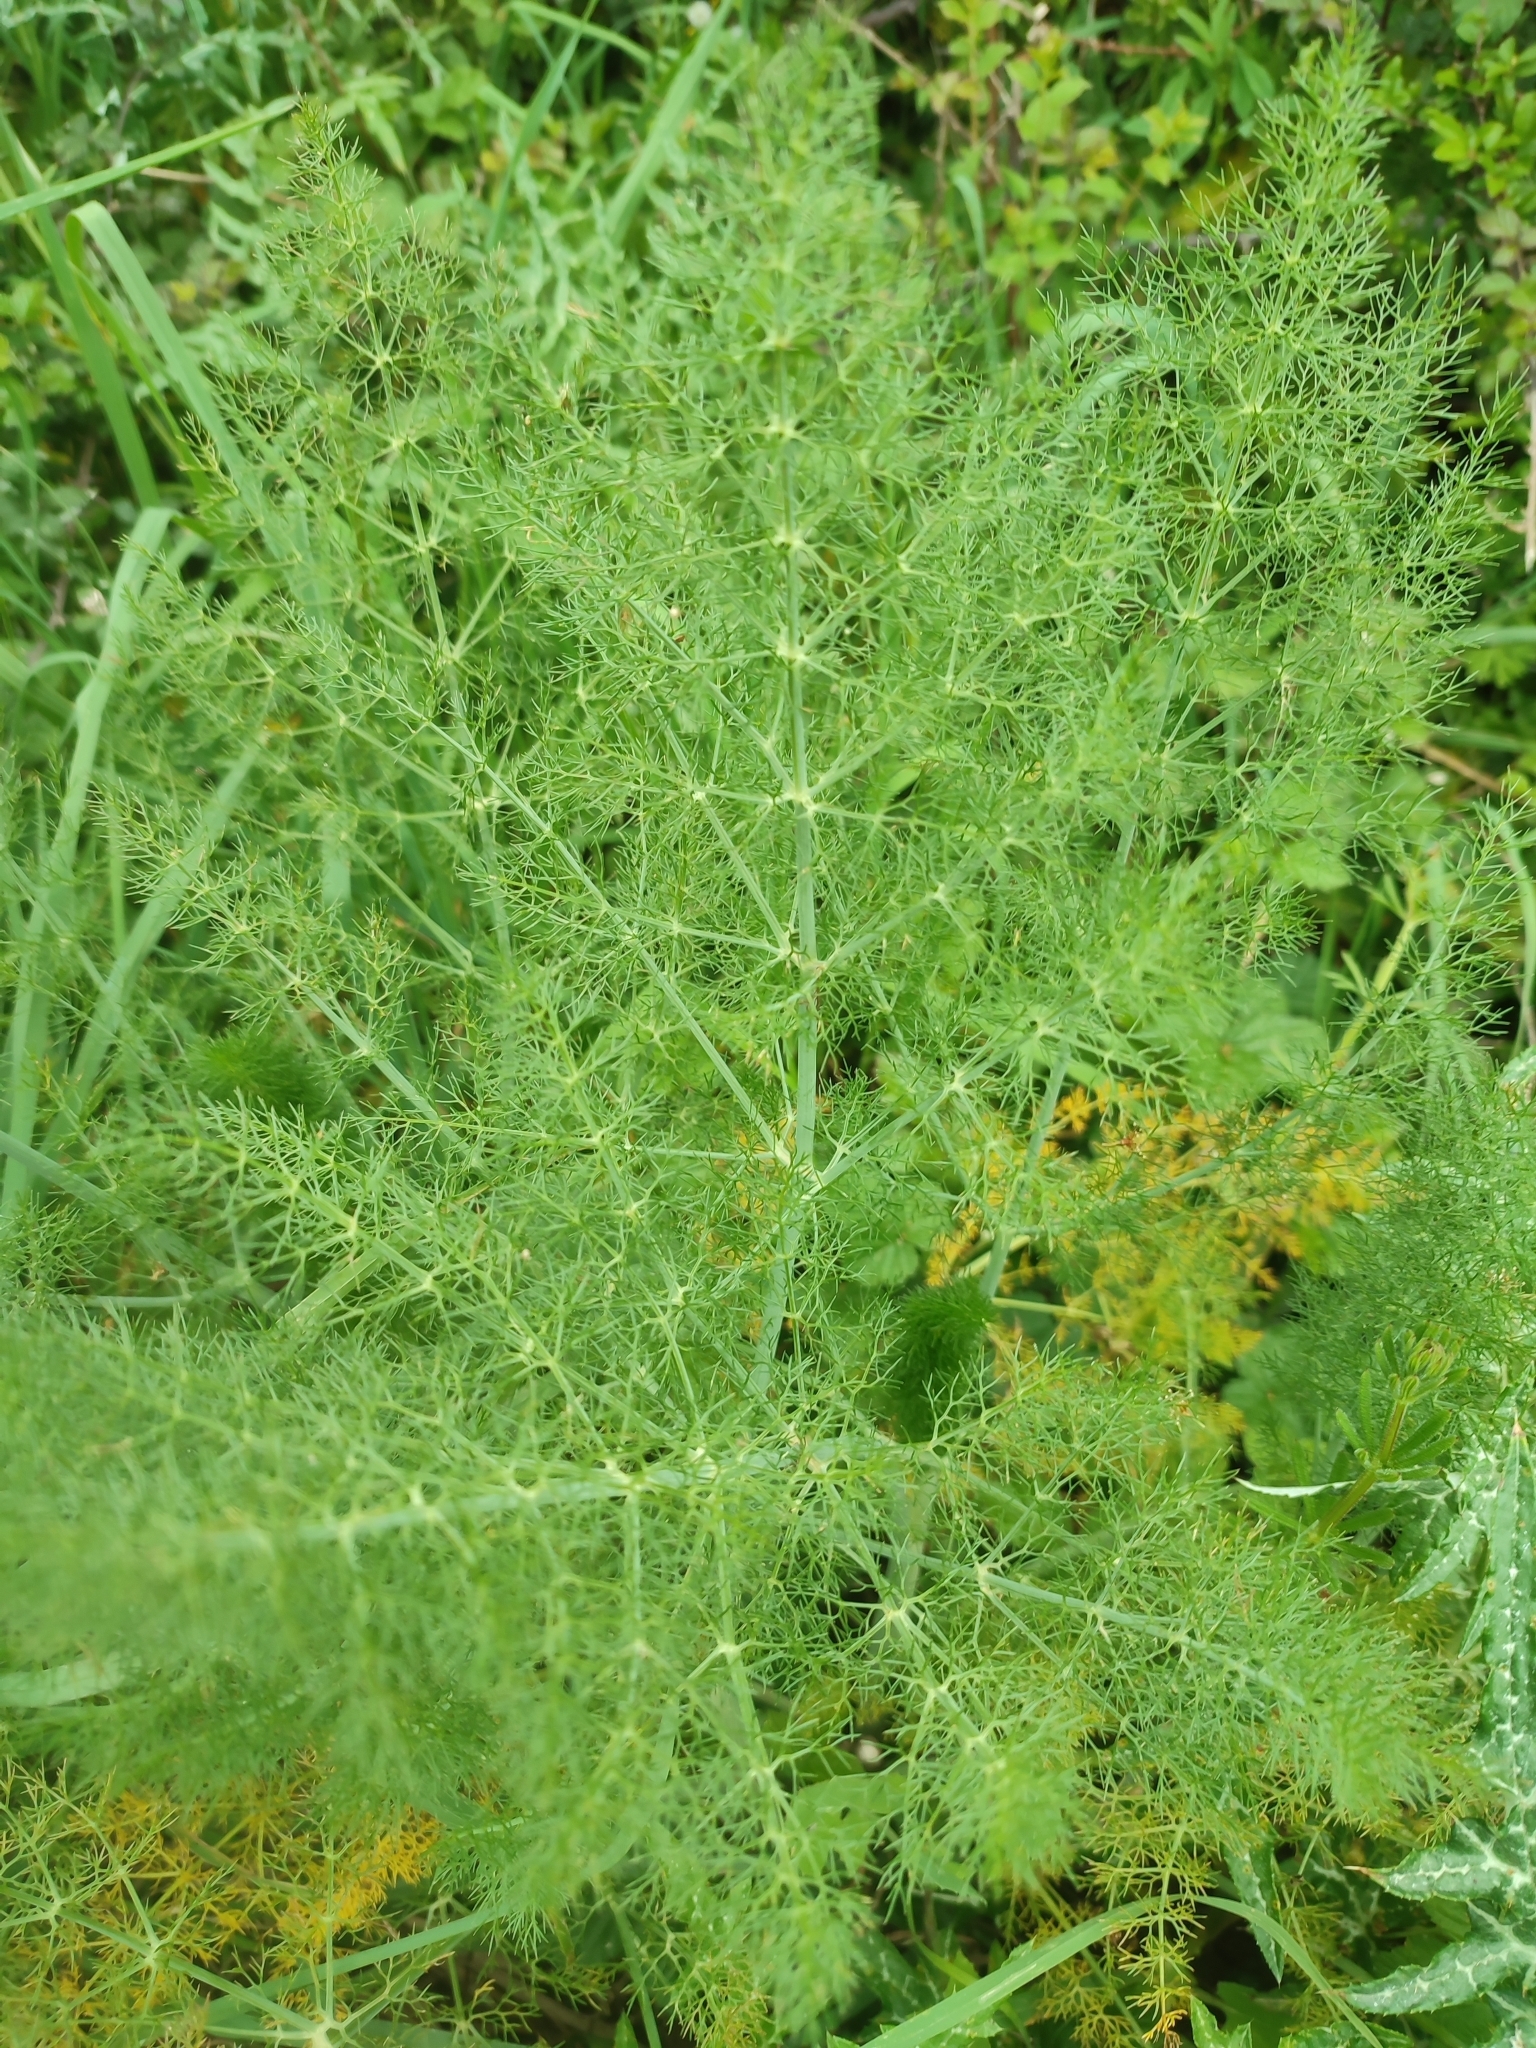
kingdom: Plantae
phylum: Tracheophyta
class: Magnoliopsida
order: Apiales
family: Apiaceae
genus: Foeniculum
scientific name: Foeniculum vulgare
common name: Fennel
